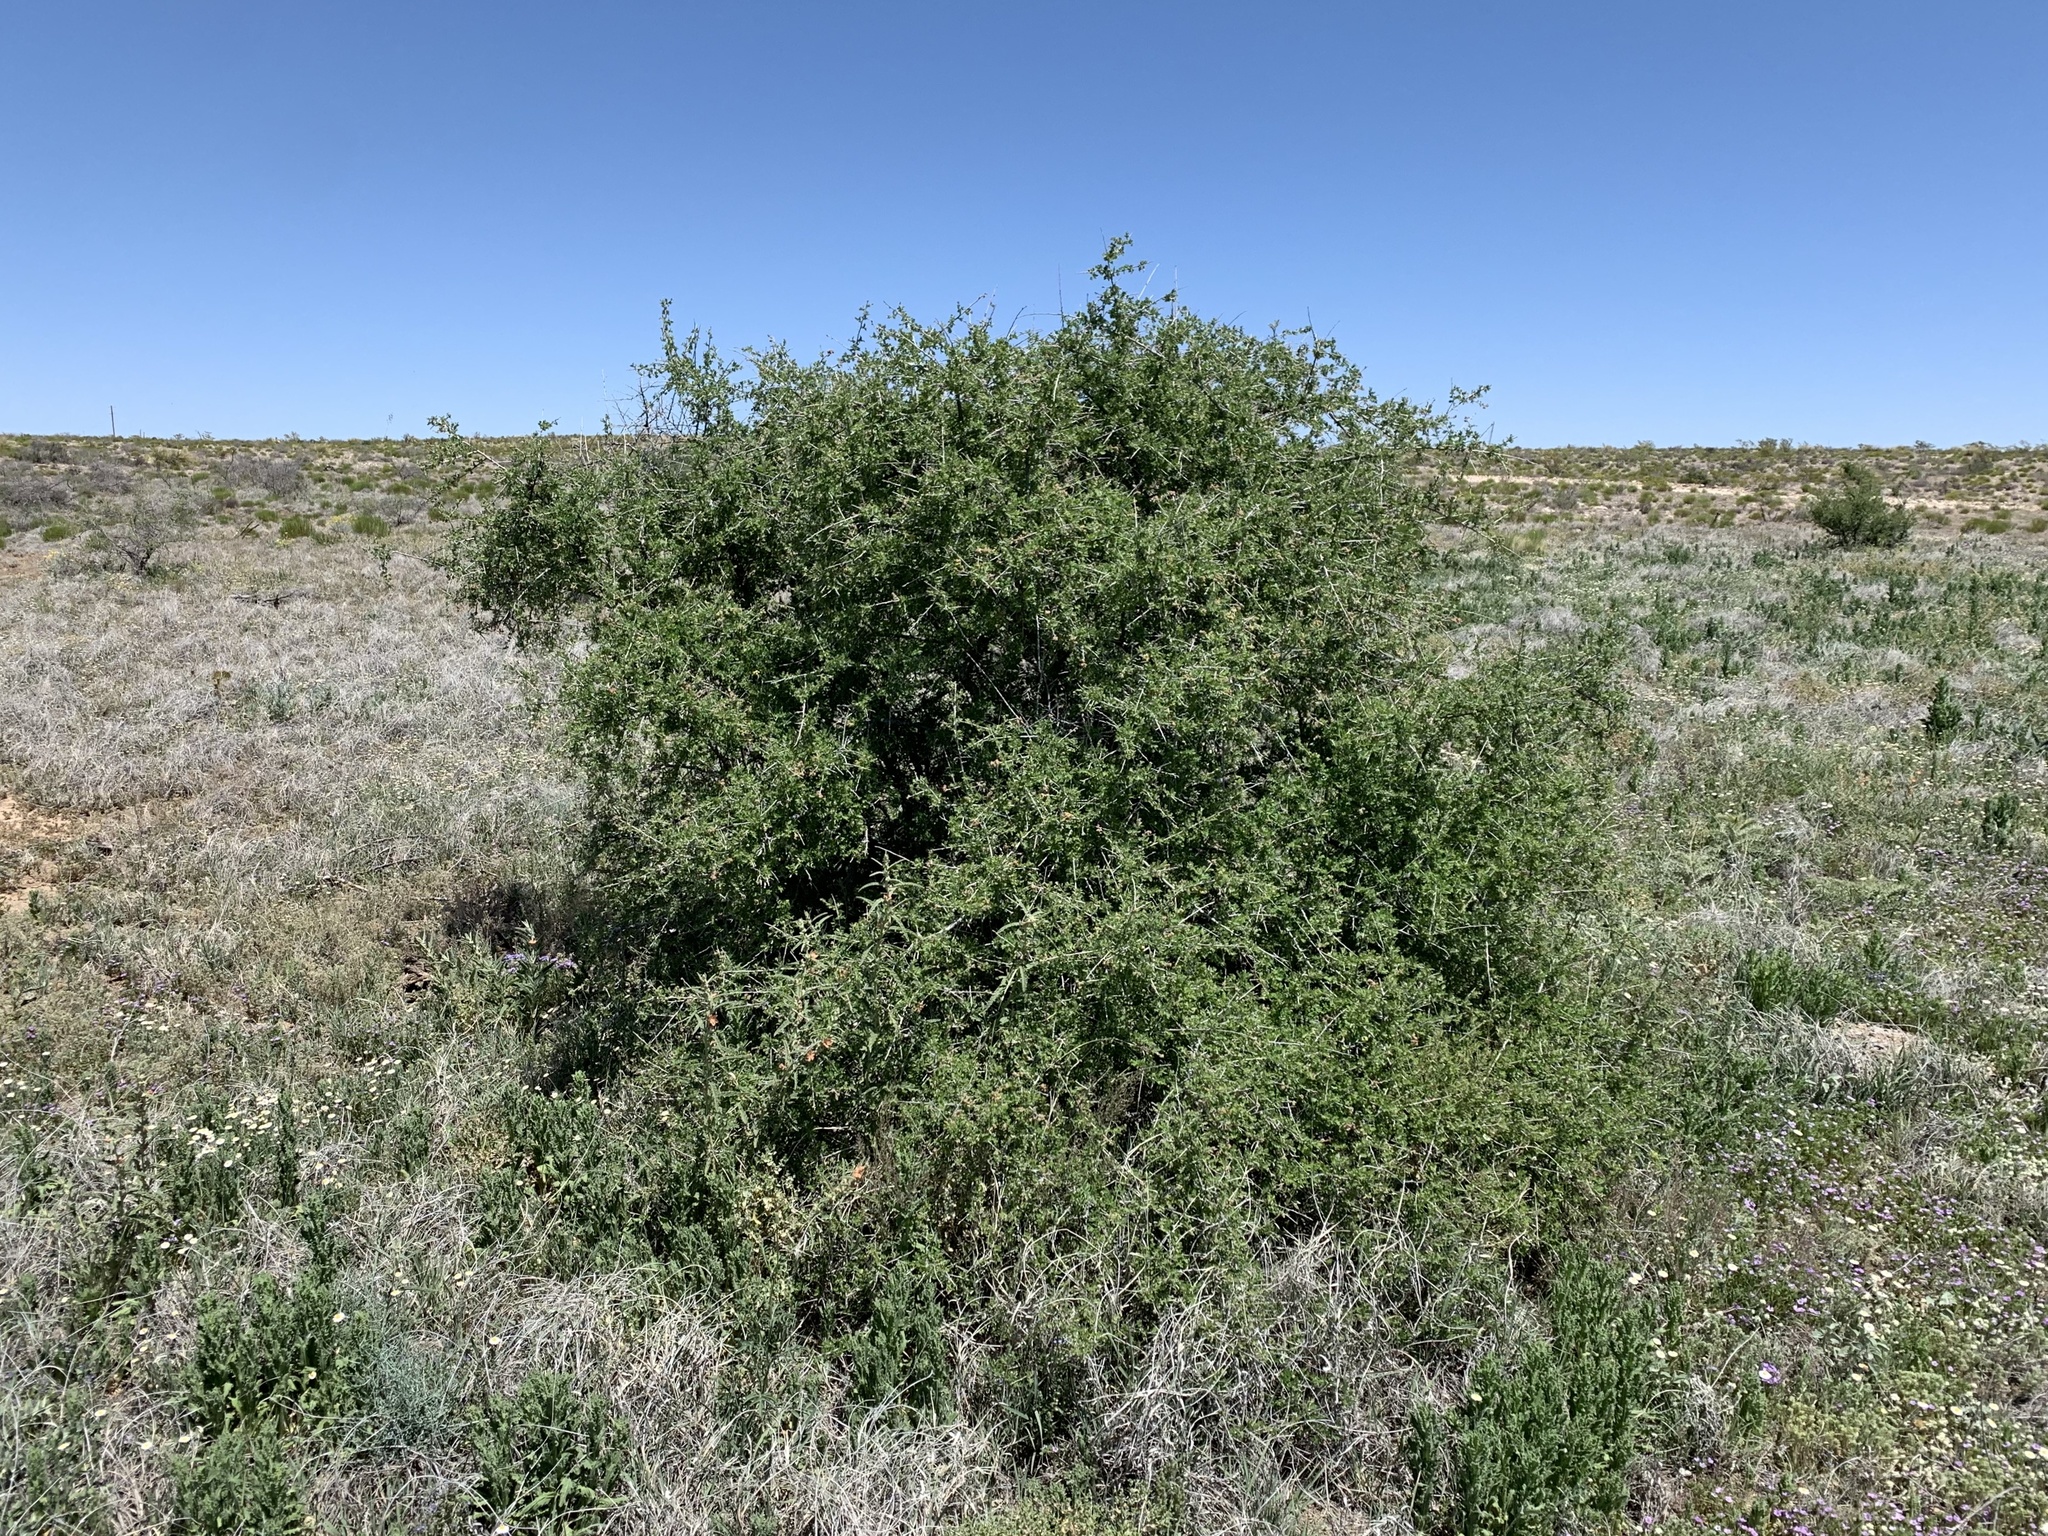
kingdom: Plantae
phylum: Tracheophyta
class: Magnoliopsida
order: Sapindales
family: Anacardiaceae
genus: Rhus
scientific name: Rhus microphylla
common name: Desert sumac
